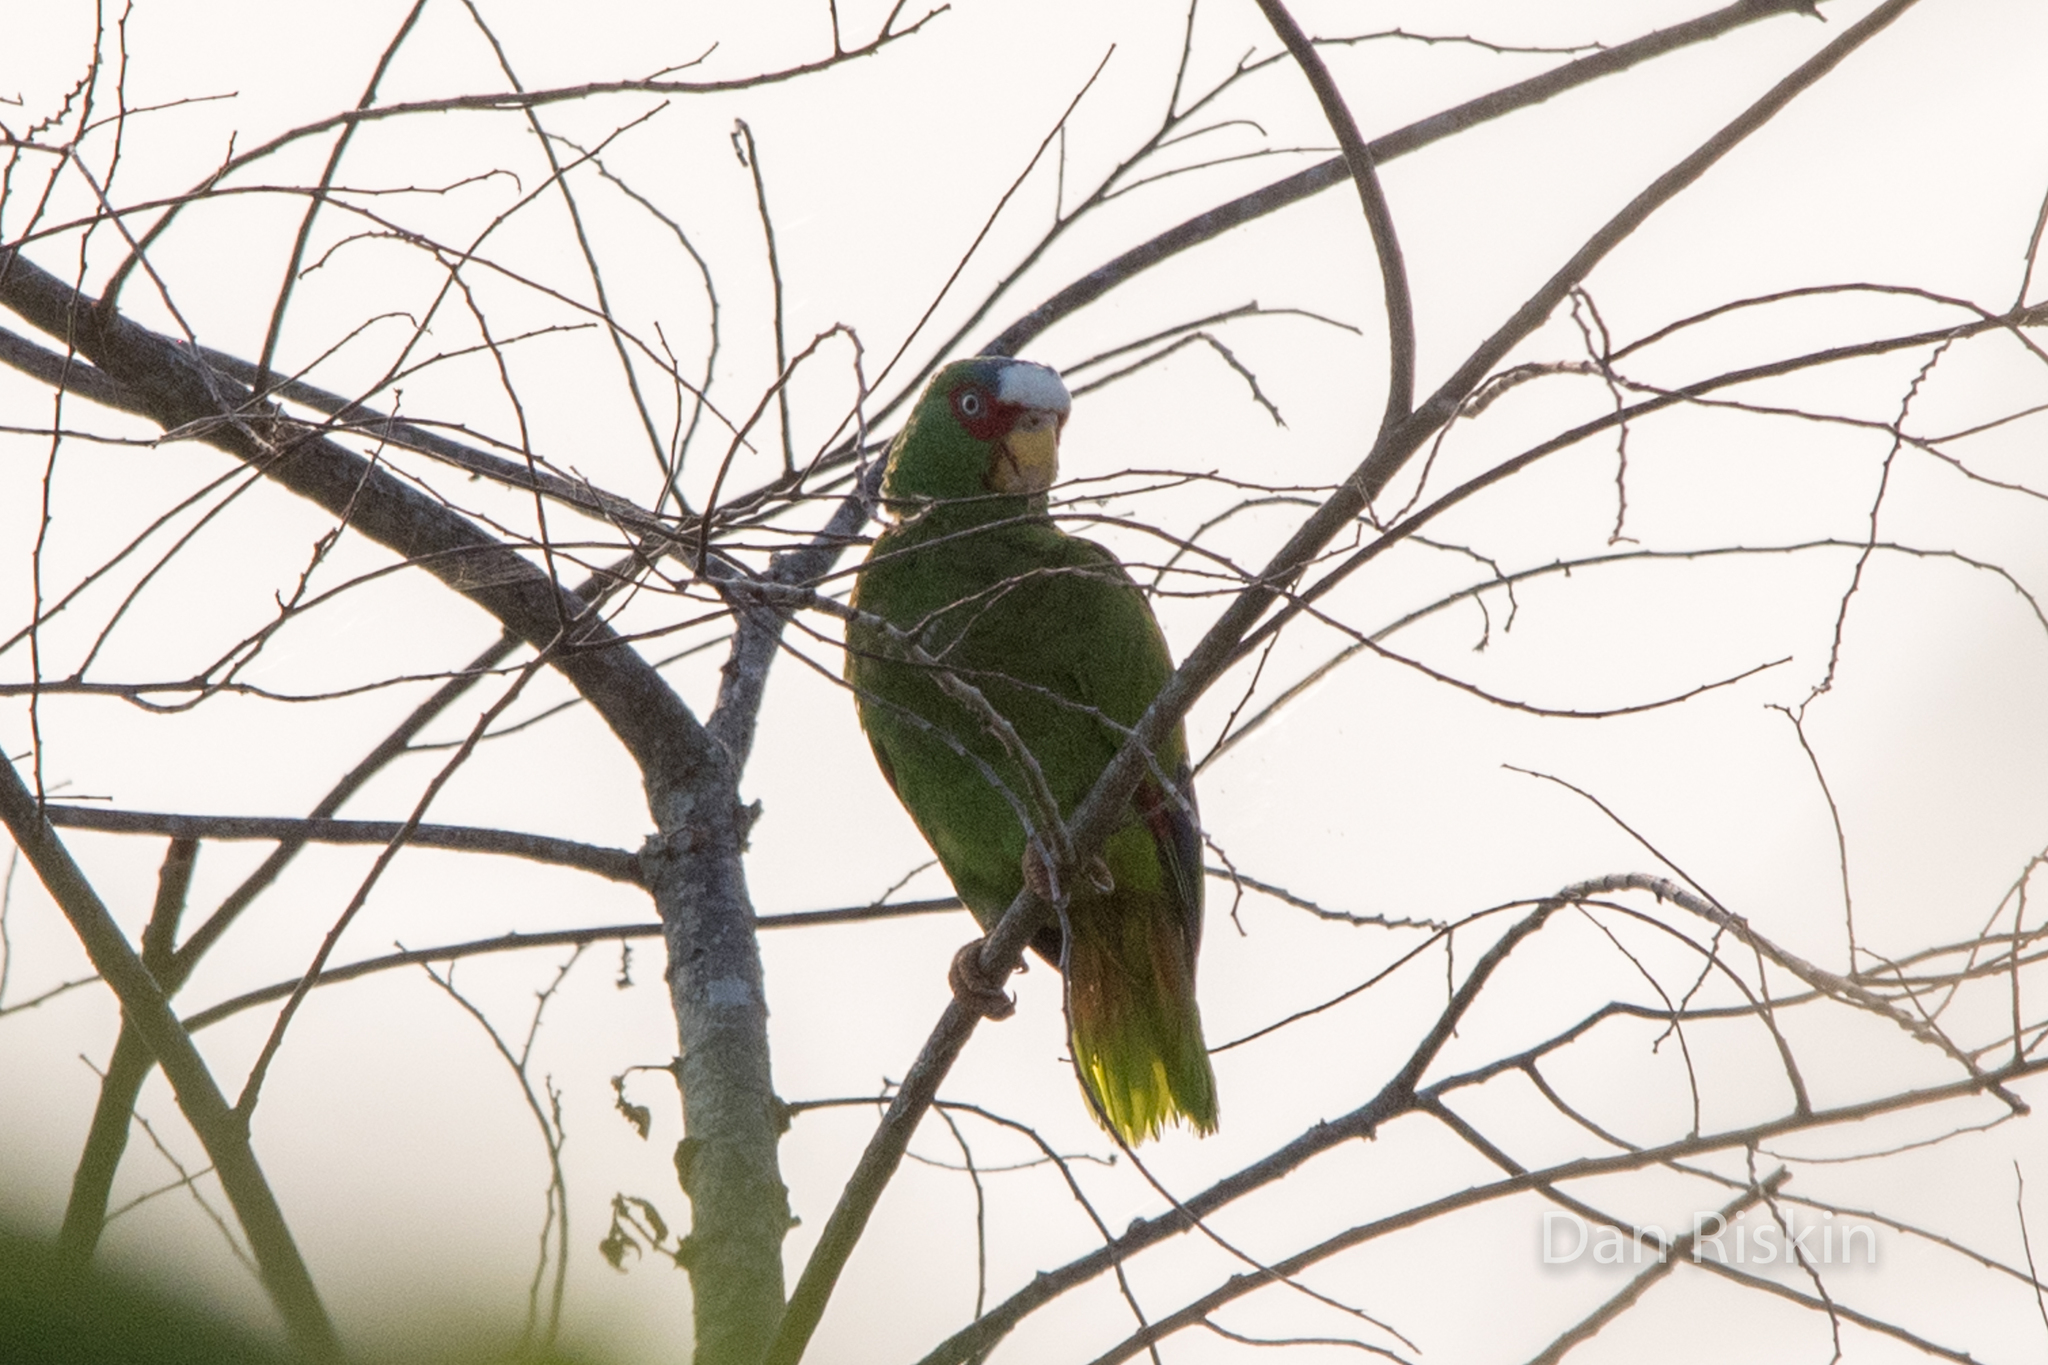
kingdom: Animalia
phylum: Chordata
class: Aves
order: Psittaciformes
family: Psittacidae
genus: Amazona
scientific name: Amazona albifrons
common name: White-fronted amazon
